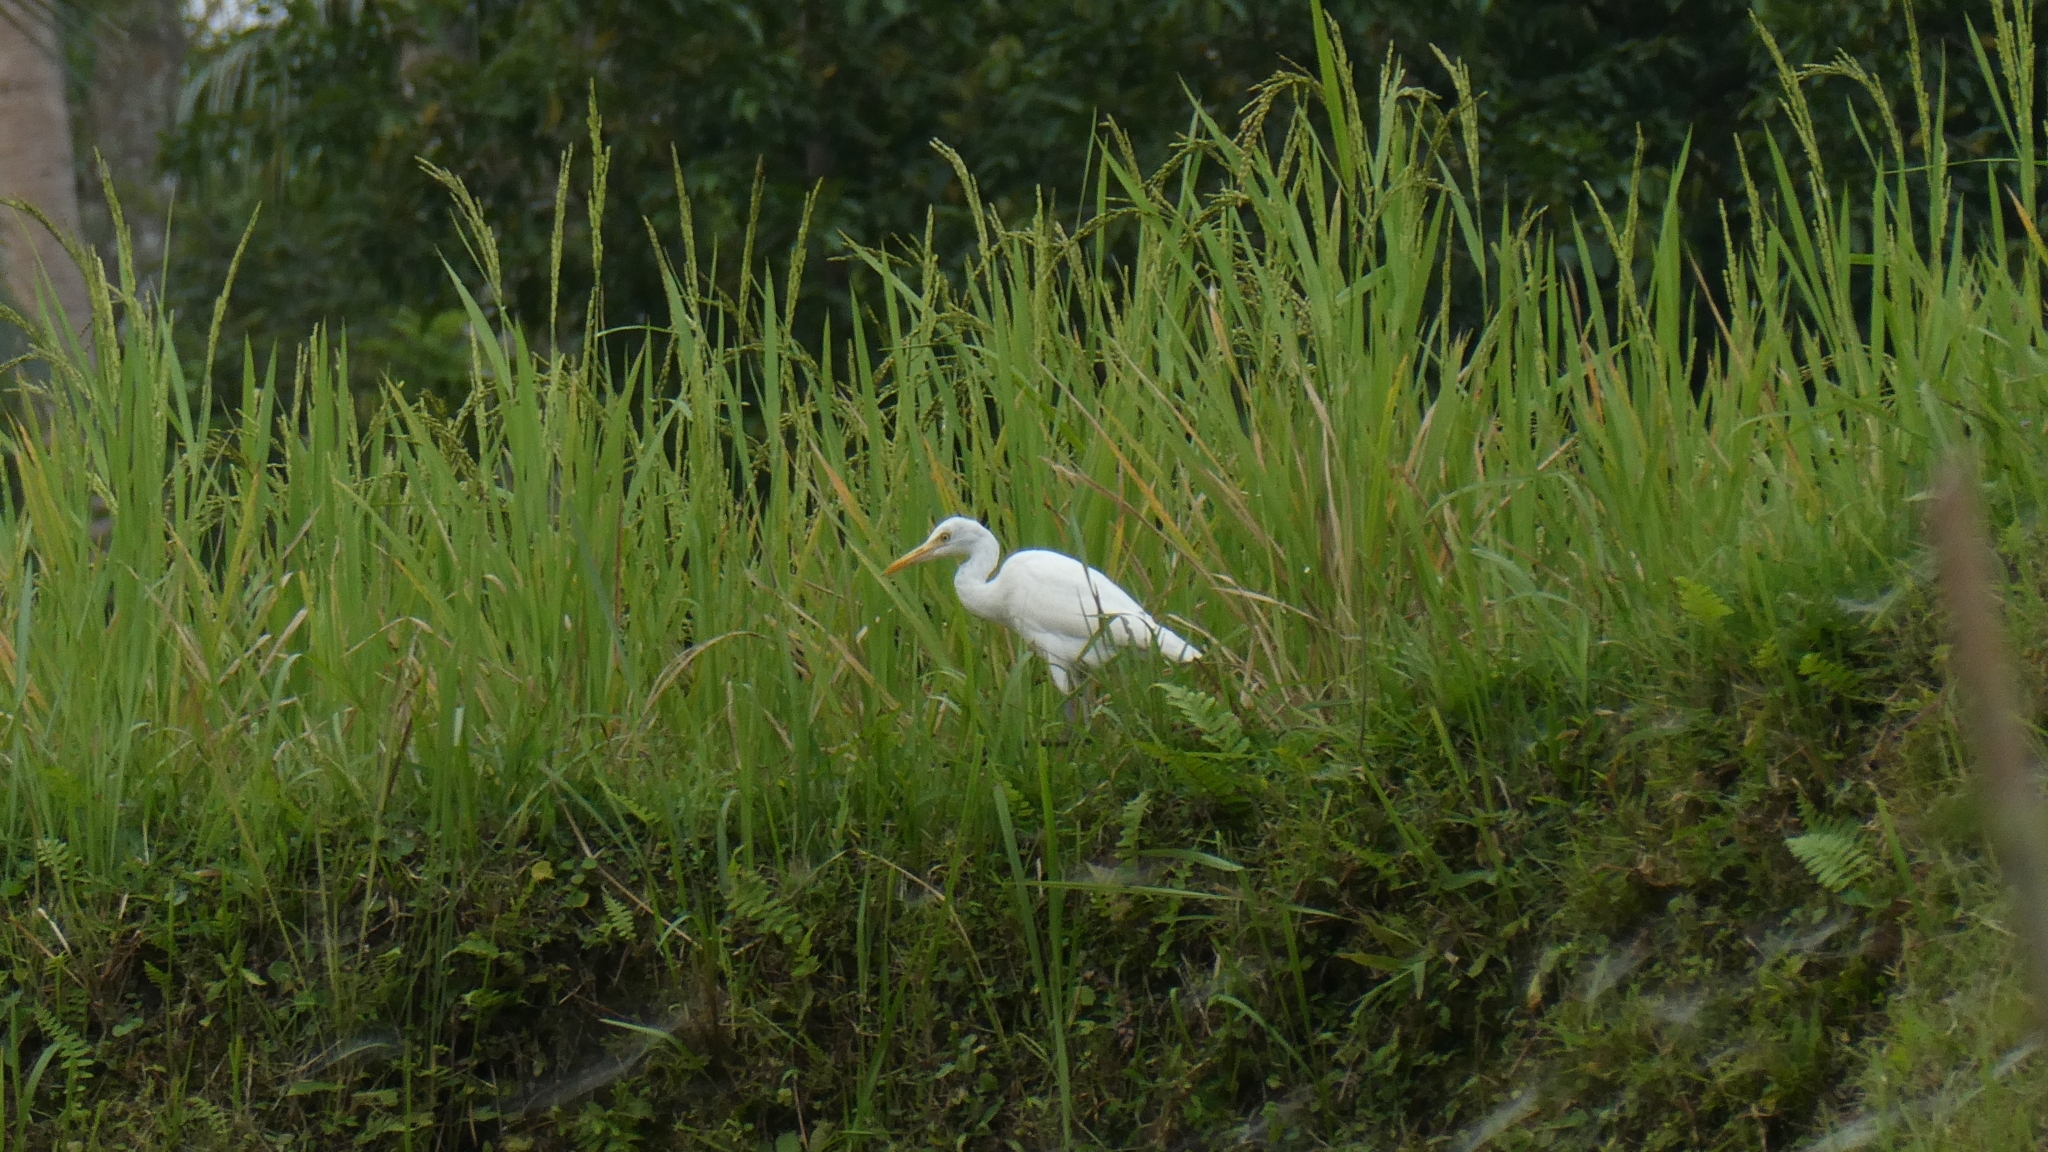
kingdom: Animalia
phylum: Chordata
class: Aves
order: Pelecaniformes
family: Ardeidae
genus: Bubulcus
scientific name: Bubulcus coromandus
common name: Eastern cattle egret
